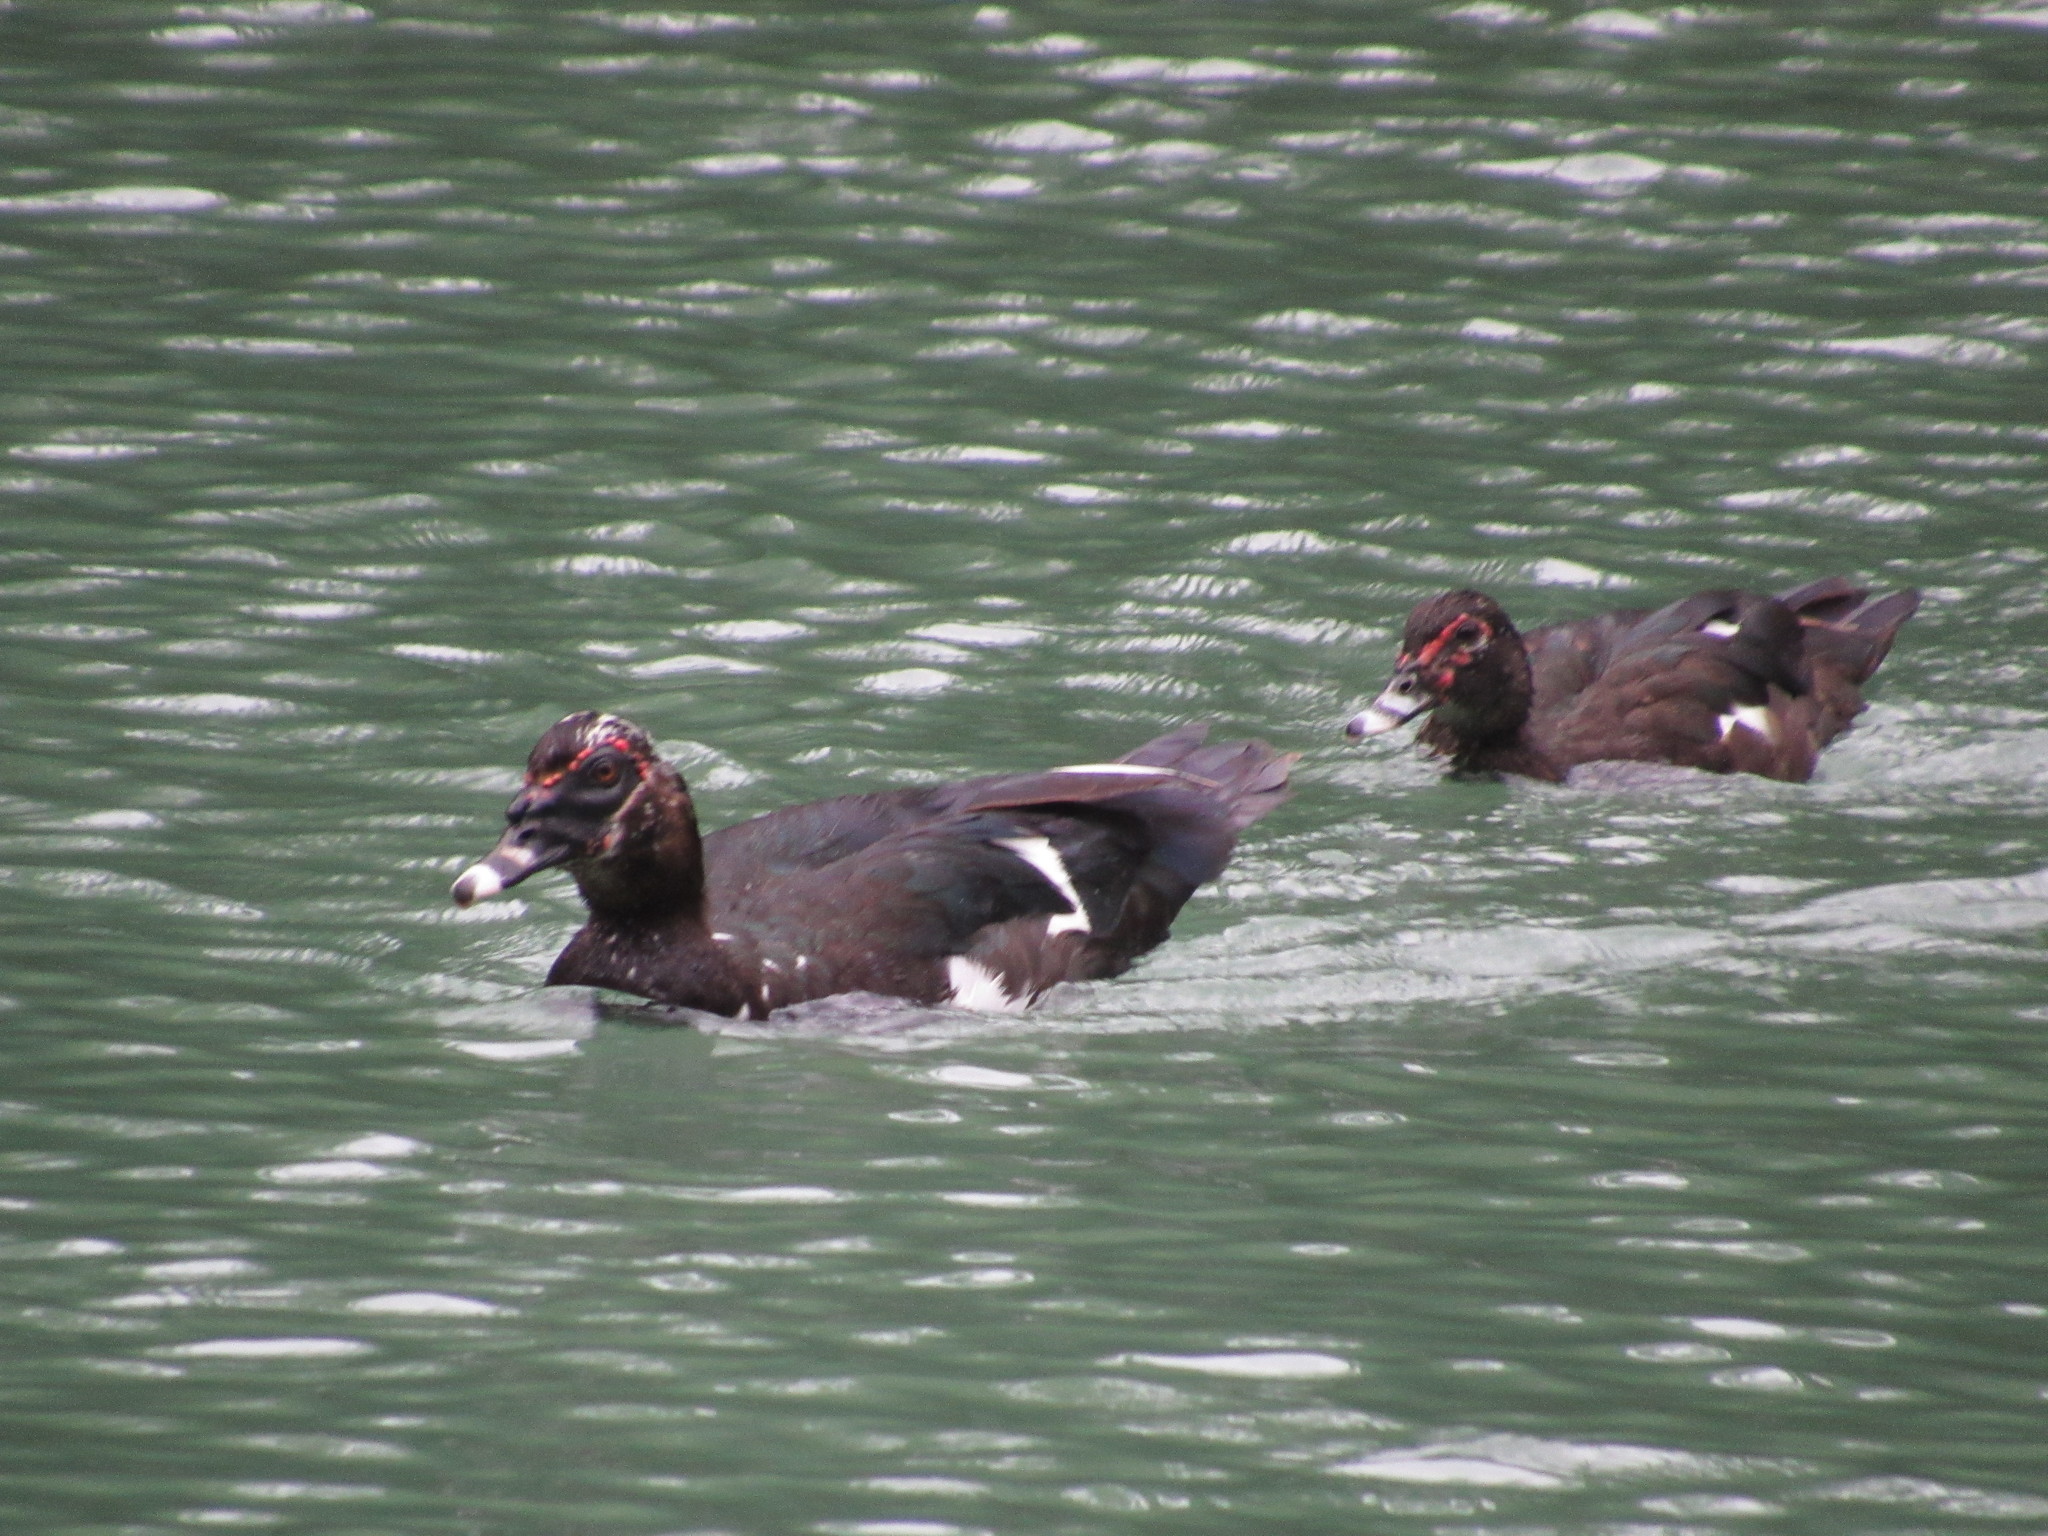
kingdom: Animalia
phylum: Chordata
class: Aves
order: Anseriformes
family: Anatidae
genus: Cairina
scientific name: Cairina moschata
